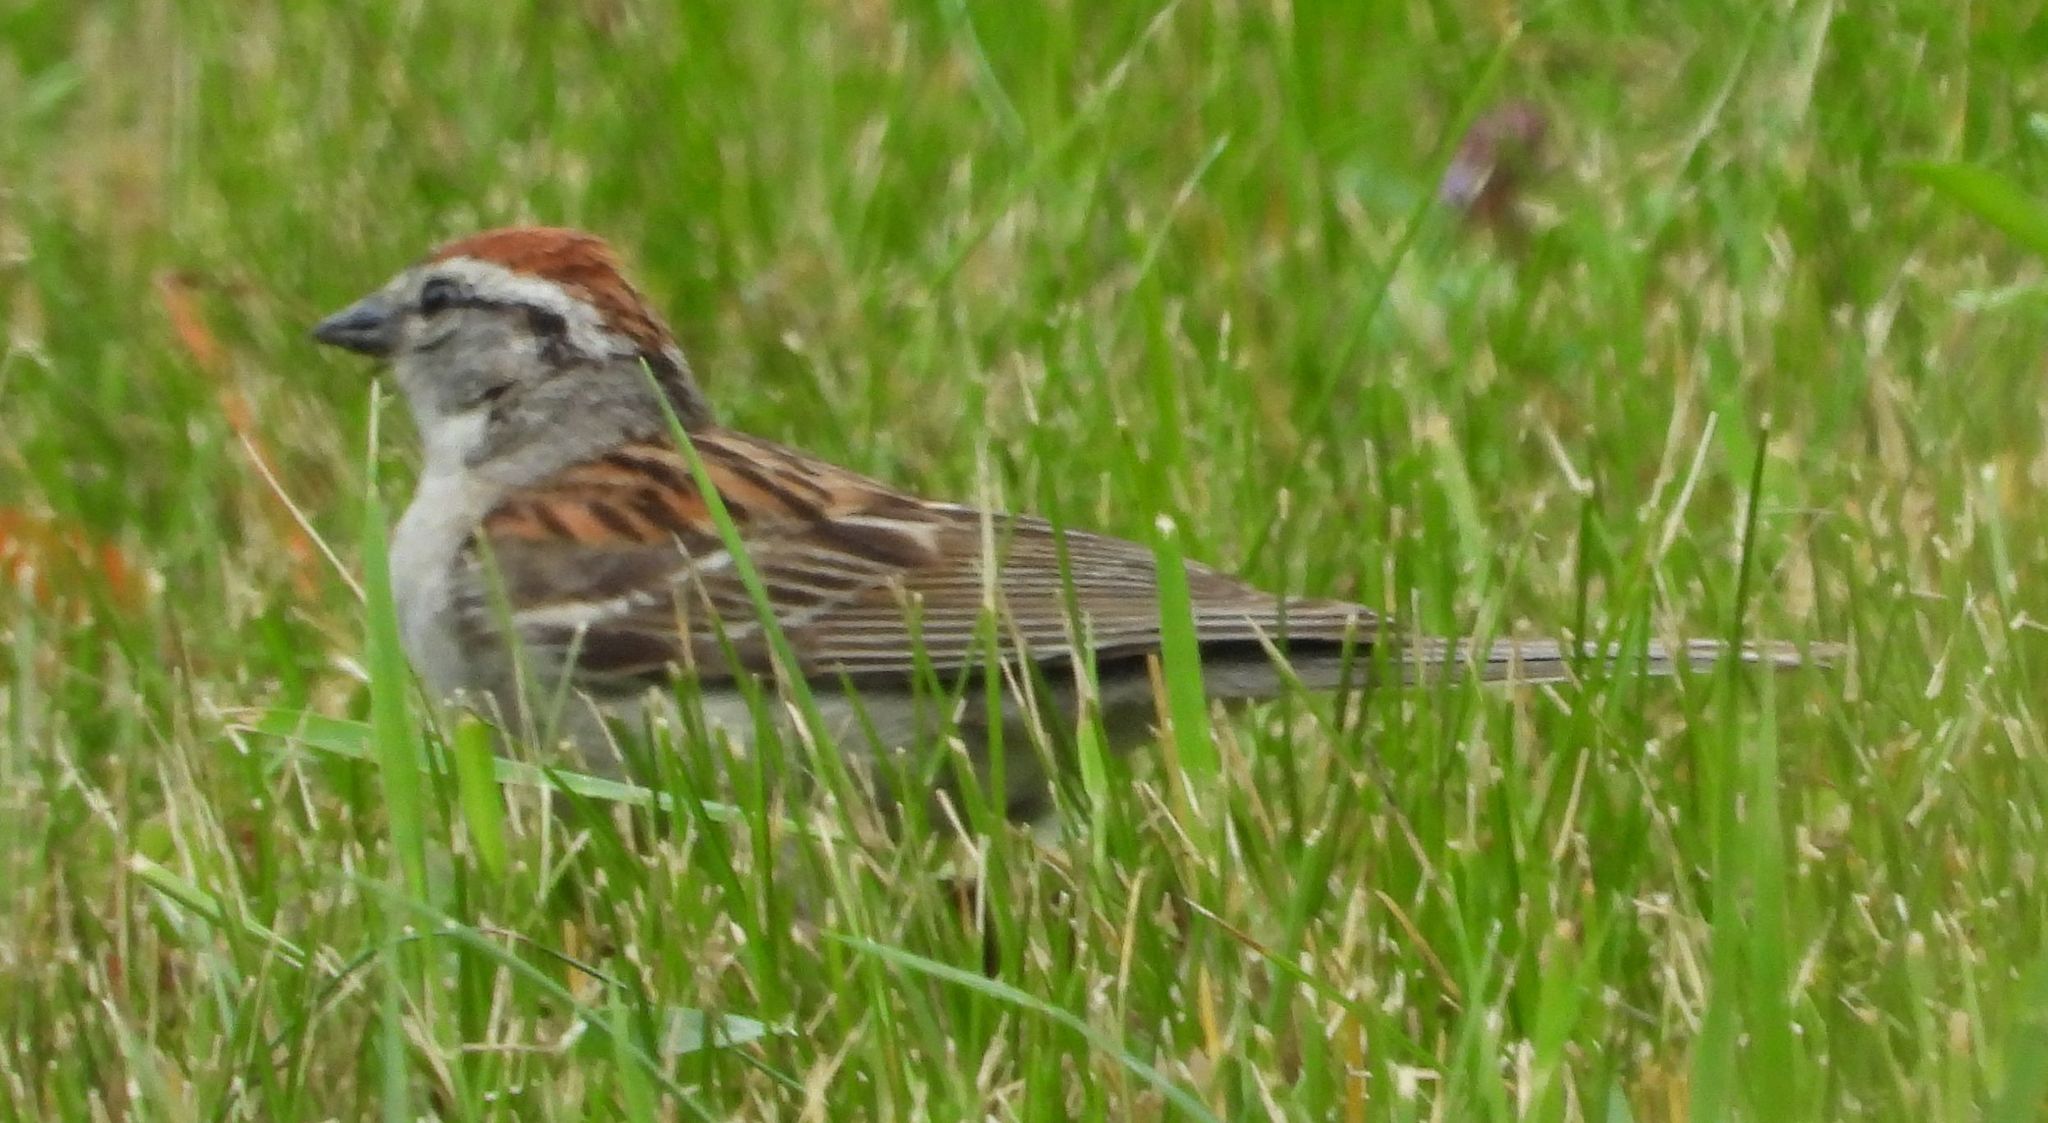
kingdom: Animalia
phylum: Chordata
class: Aves
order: Passeriformes
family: Passerellidae
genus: Spizella
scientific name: Spizella passerina
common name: Chipping sparrow
